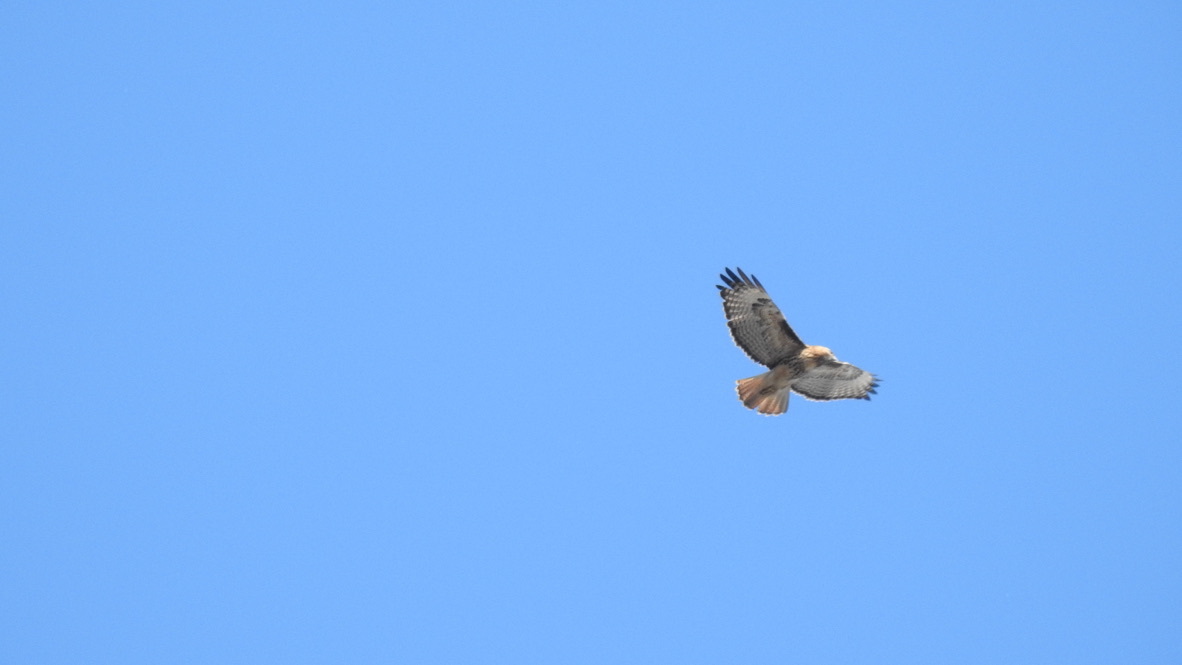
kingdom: Animalia
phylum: Chordata
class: Aves
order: Accipitriformes
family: Accipitridae
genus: Buteo
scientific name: Buteo jamaicensis
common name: Red-tailed hawk
